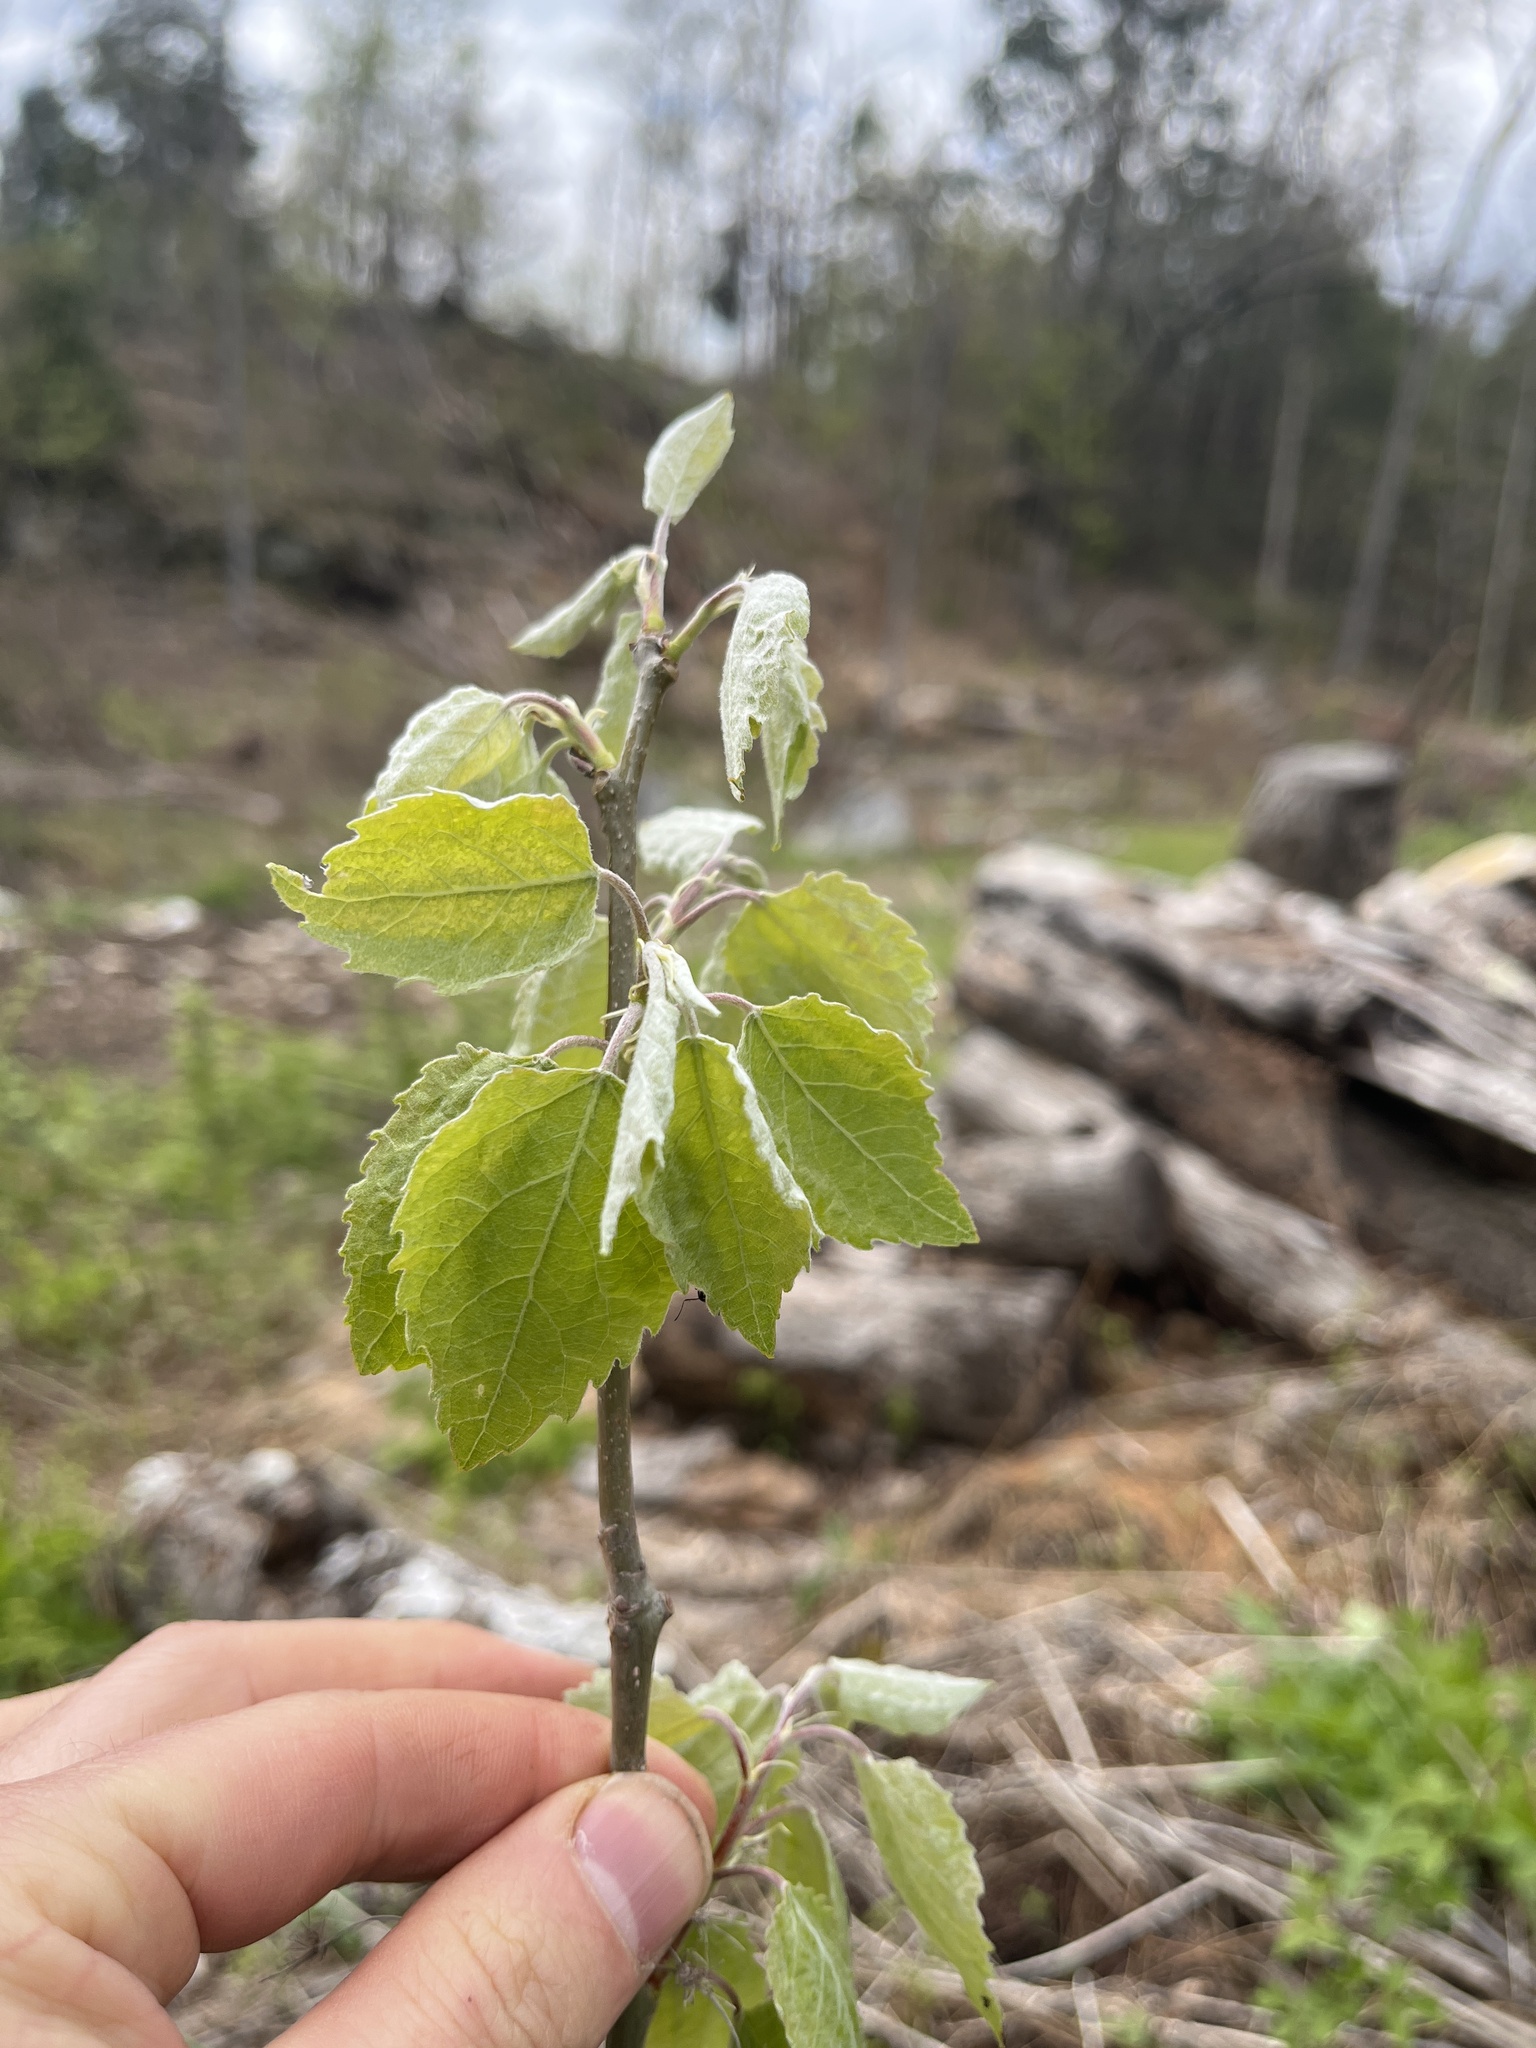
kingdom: Plantae
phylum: Tracheophyta
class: Magnoliopsida
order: Malpighiales
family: Salicaceae
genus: Populus
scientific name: Populus grandidentata
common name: Bigtooth aspen
